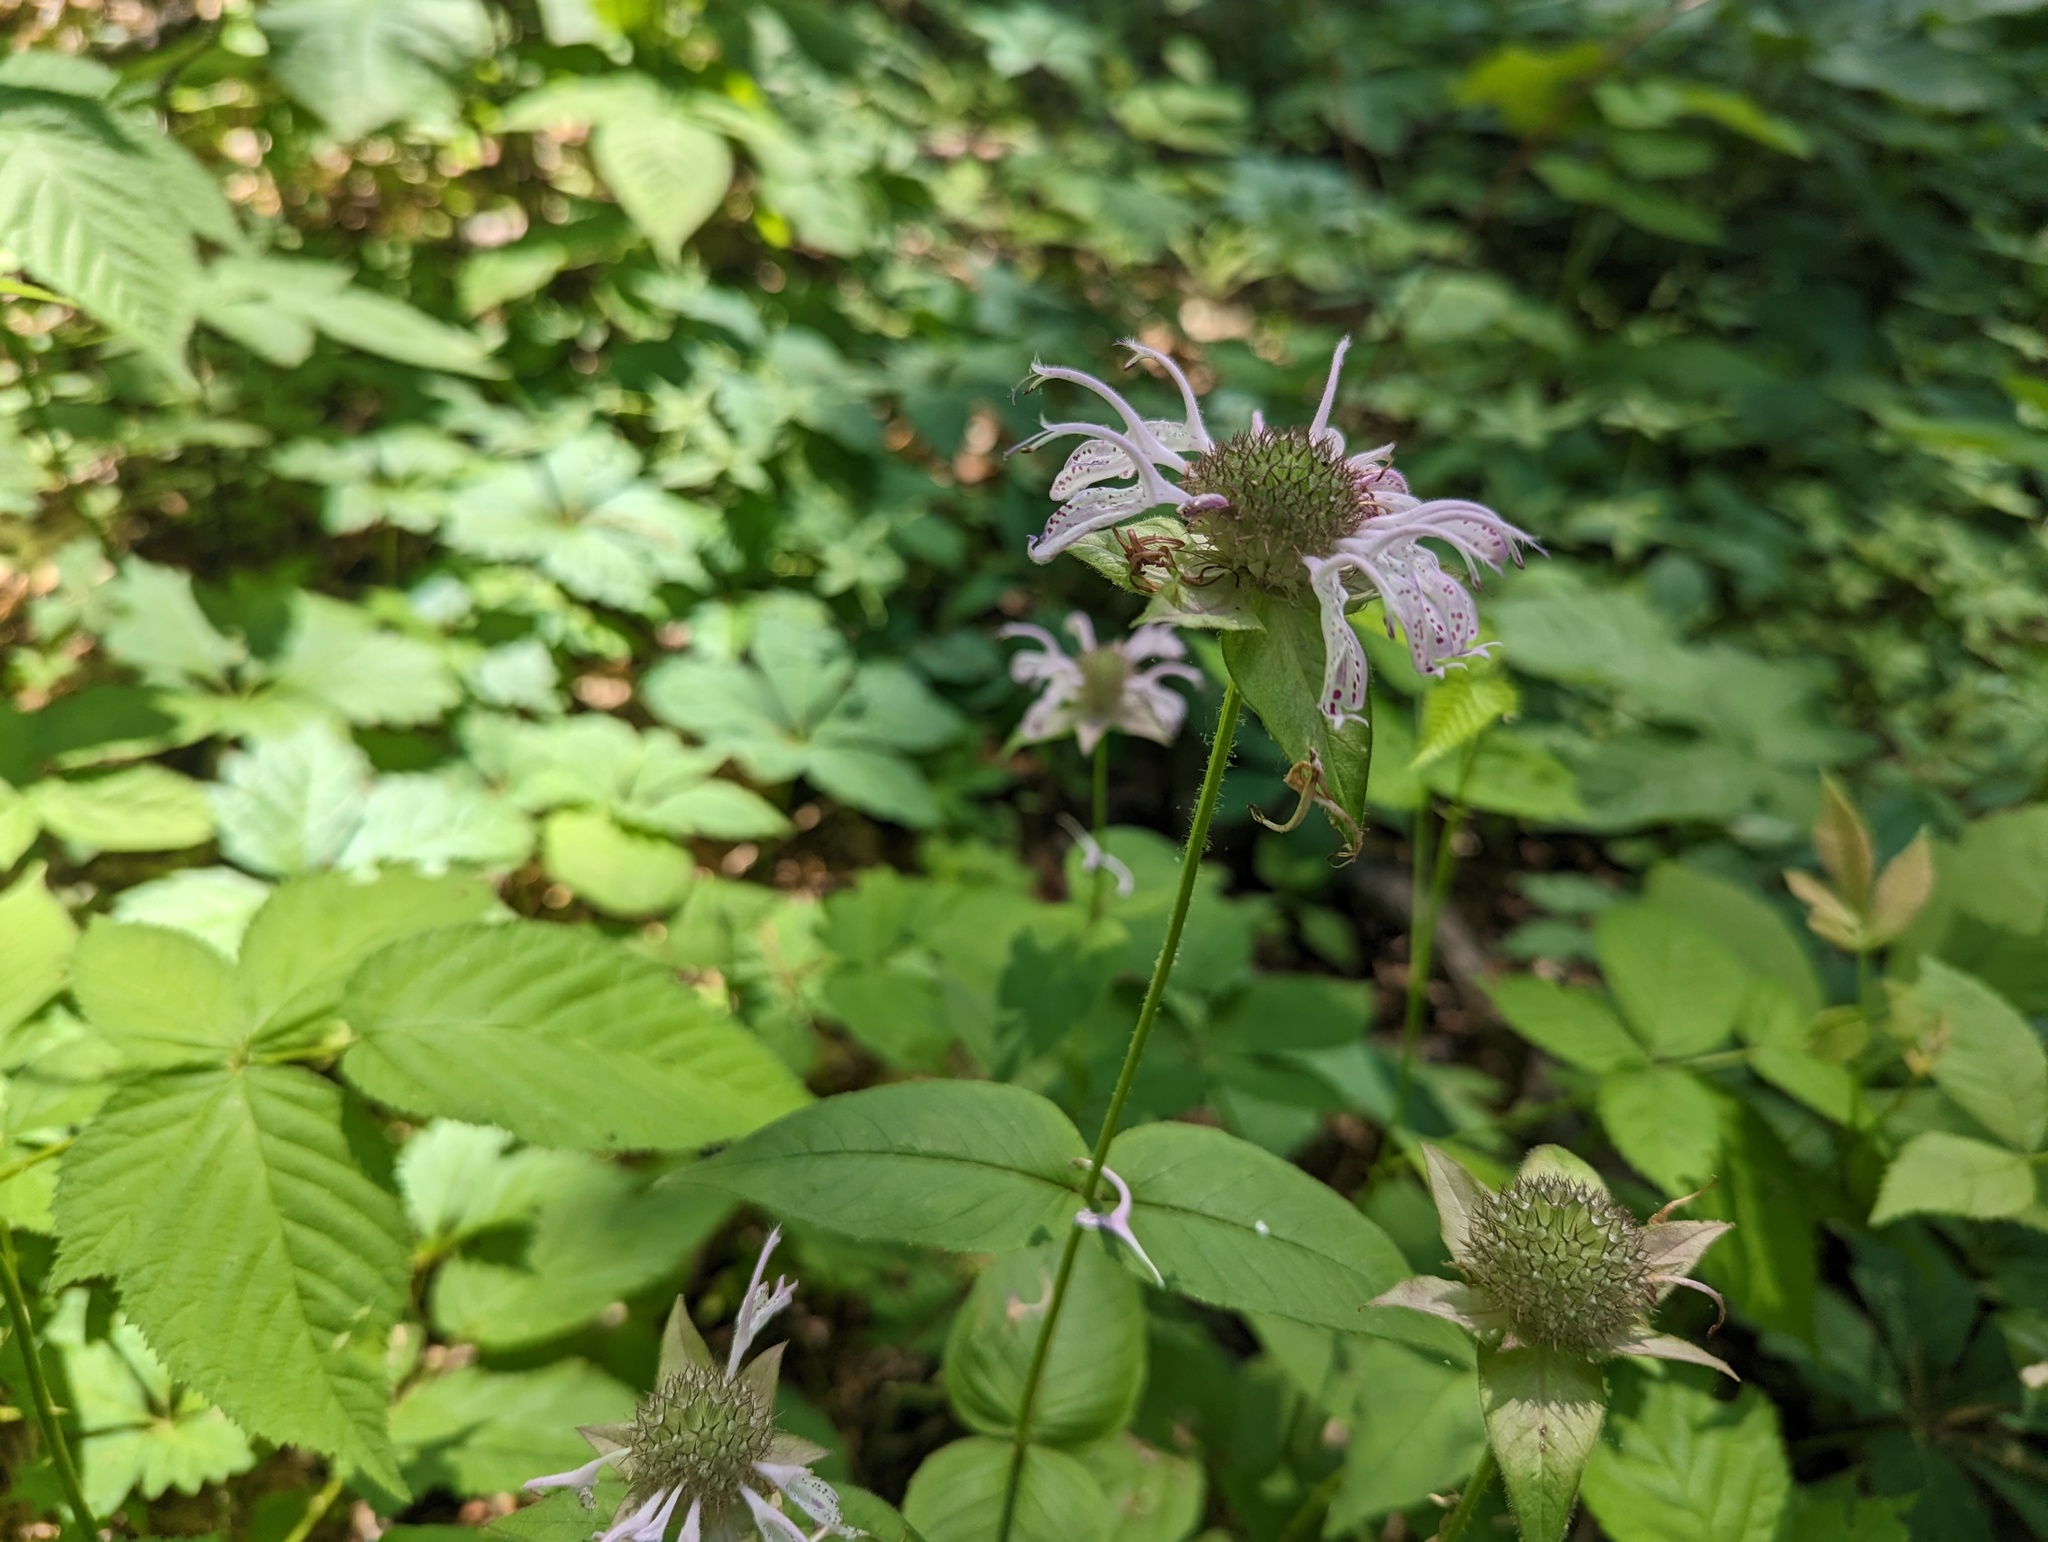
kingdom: Plantae
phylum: Tracheophyta
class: Magnoliopsida
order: Lamiales
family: Lamiaceae
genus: Monarda
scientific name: Monarda bradburiana
